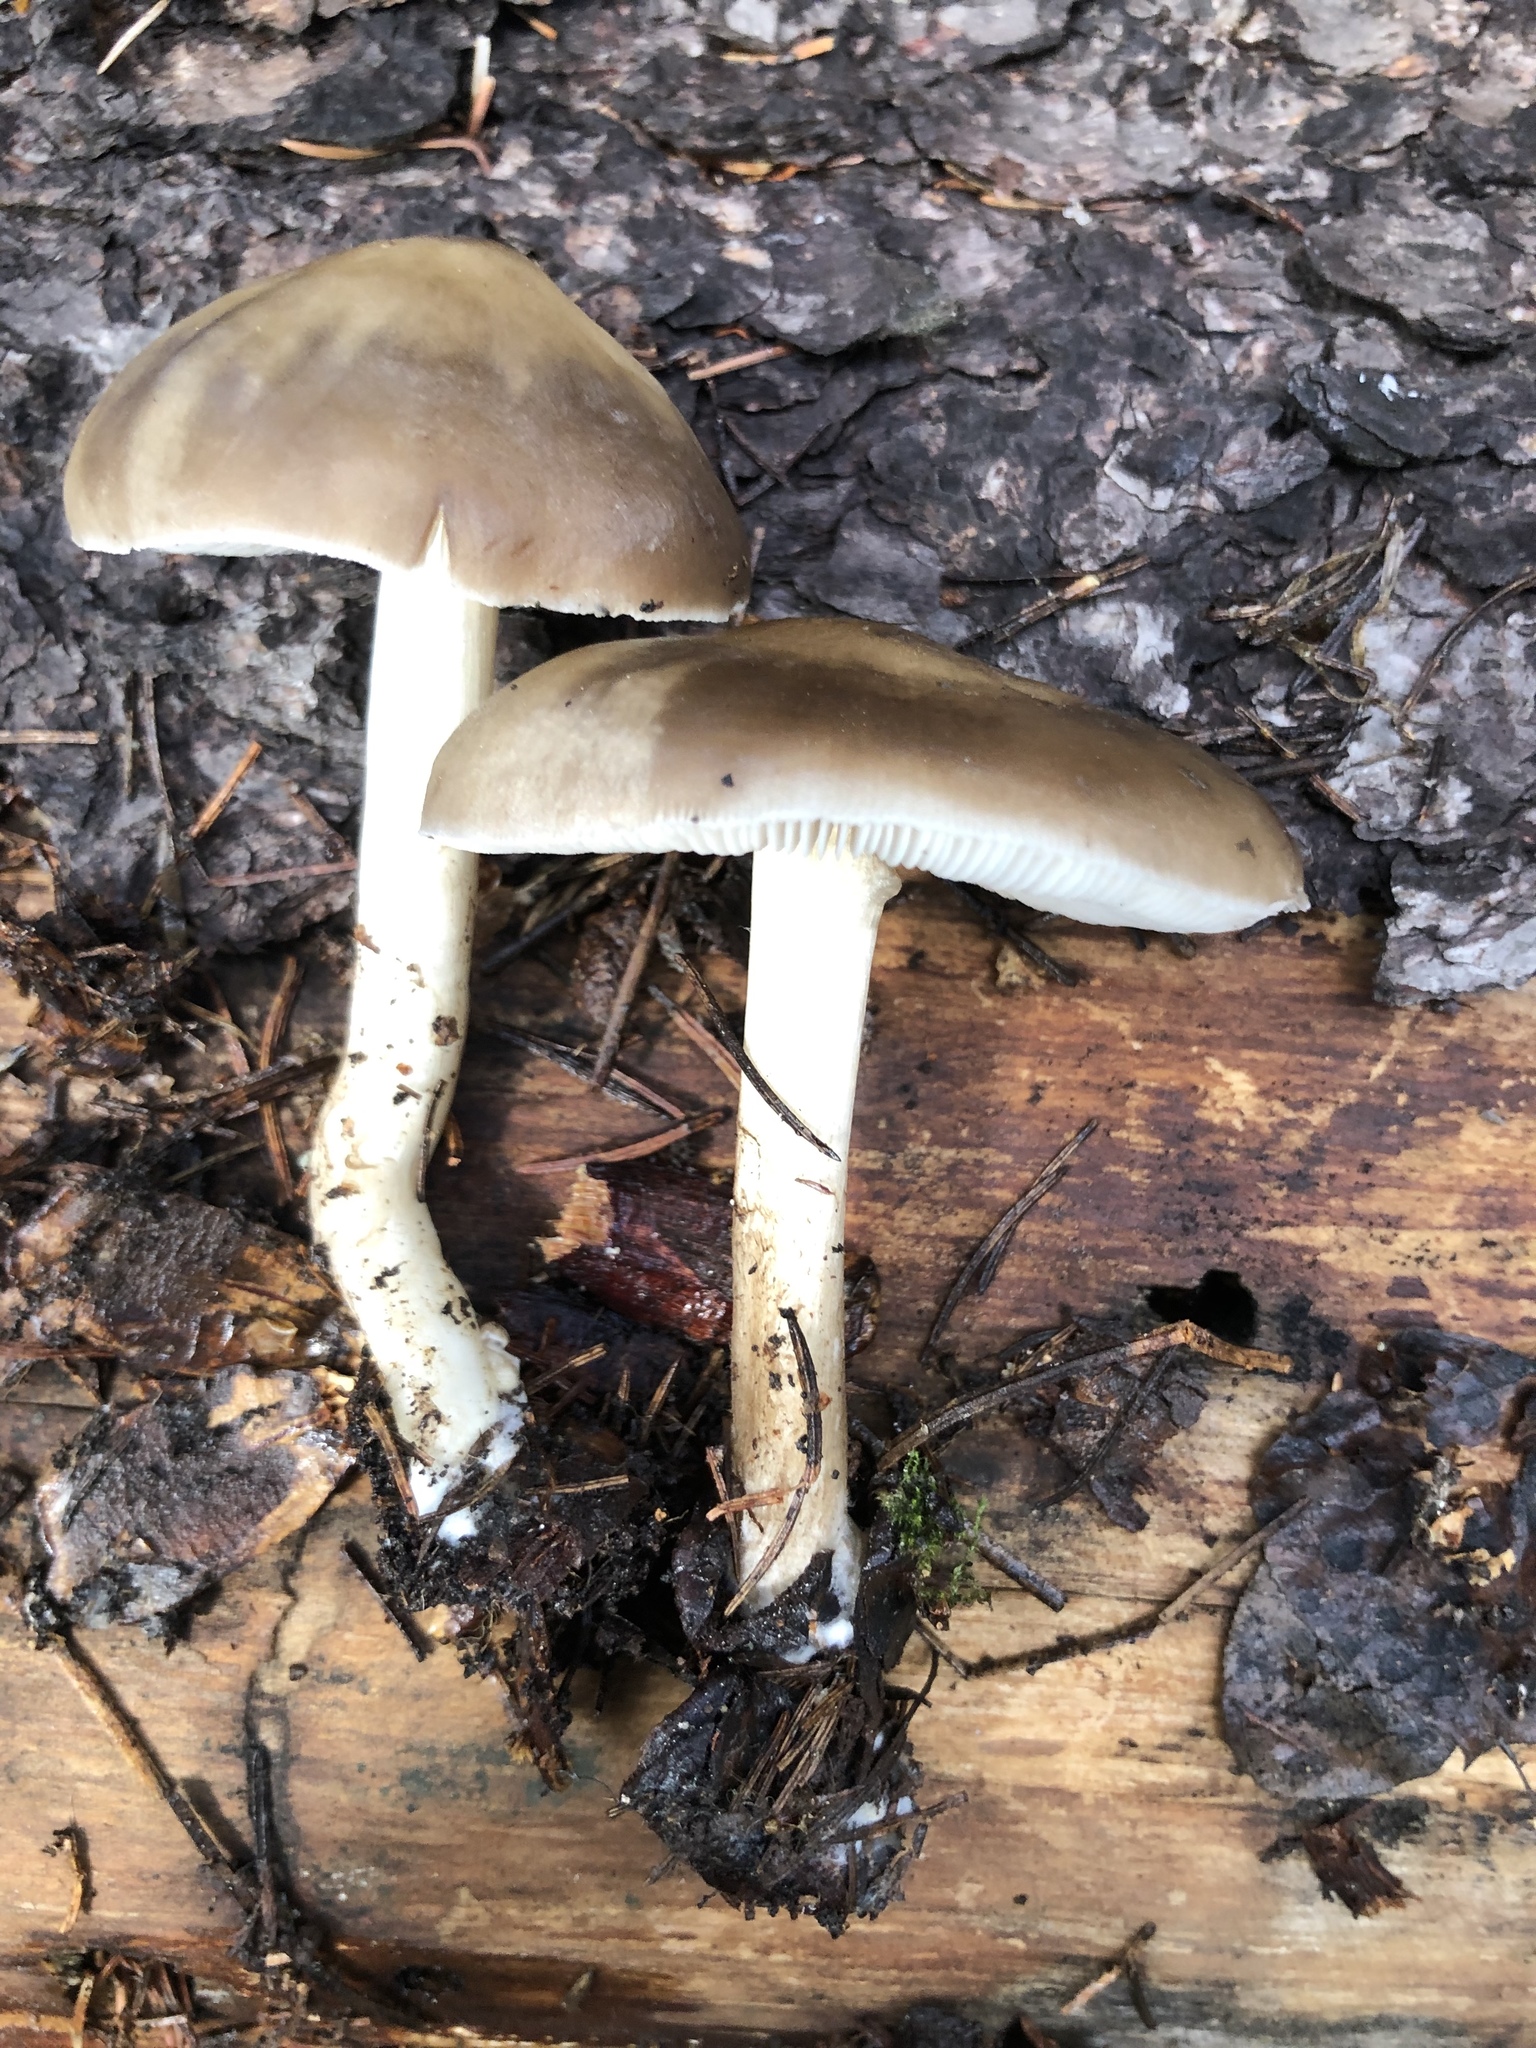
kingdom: Fungi
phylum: Basidiomycota
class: Agaricomycetes
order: Agaricales
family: Pluteaceae
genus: Pluteus
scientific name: Pluteus brunneidiscus
